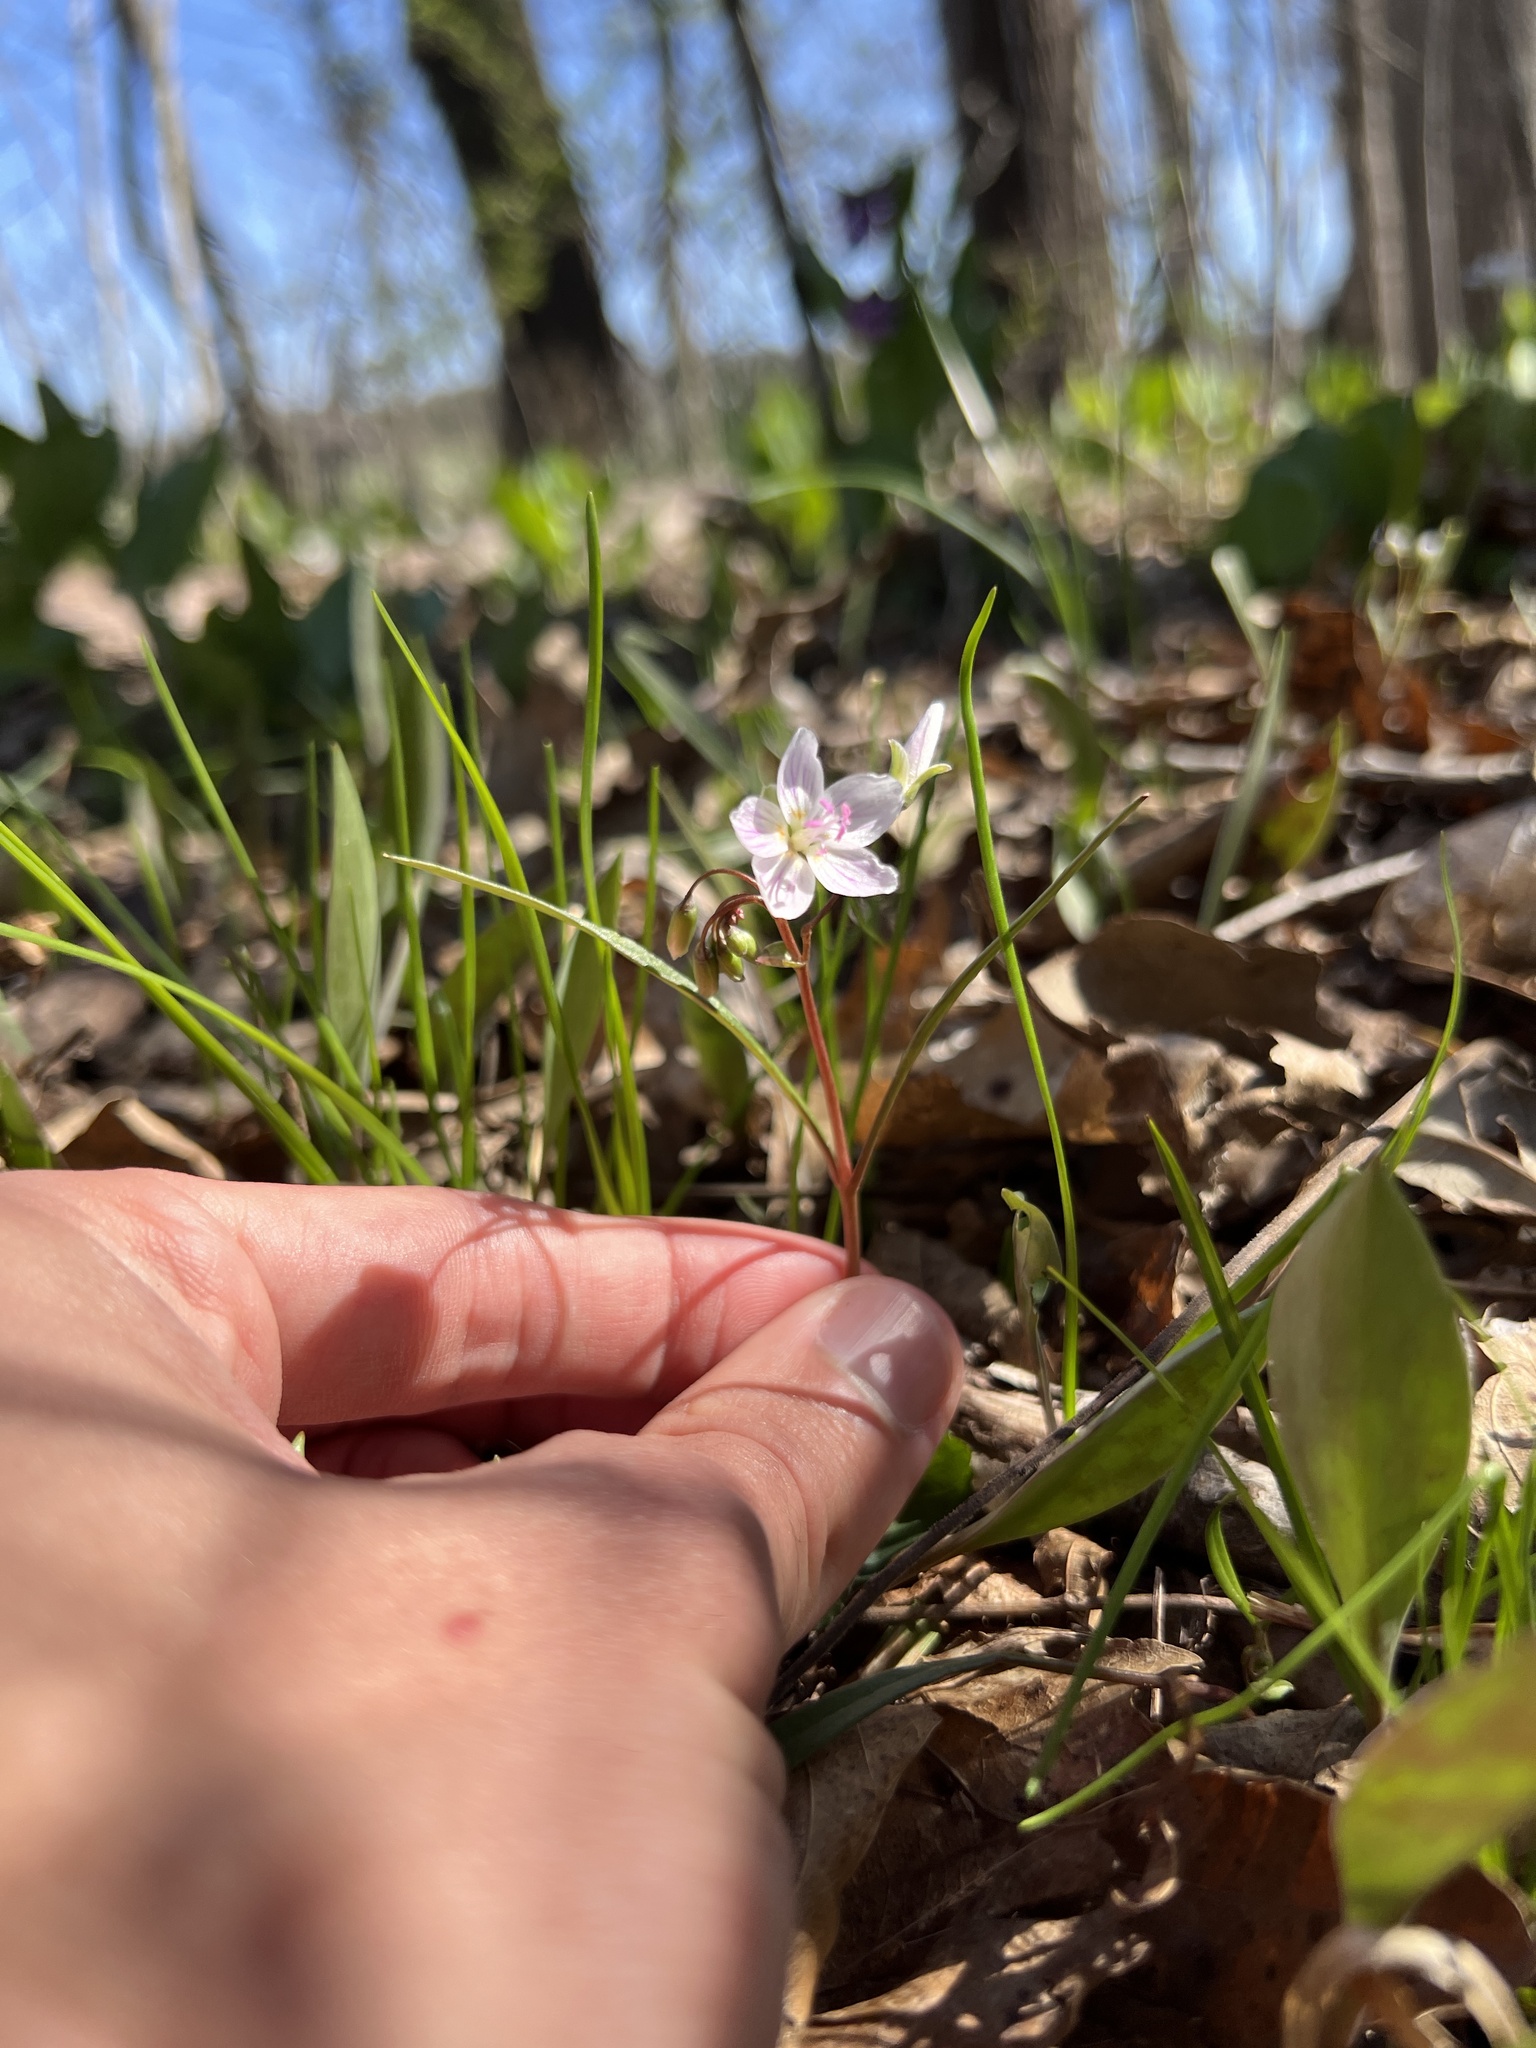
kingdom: Plantae
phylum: Tracheophyta
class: Magnoliopsida
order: Caryophyllales
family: Montiaceae
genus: Claytonia
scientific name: Claytonia virginica
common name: Virginia springbeauty
